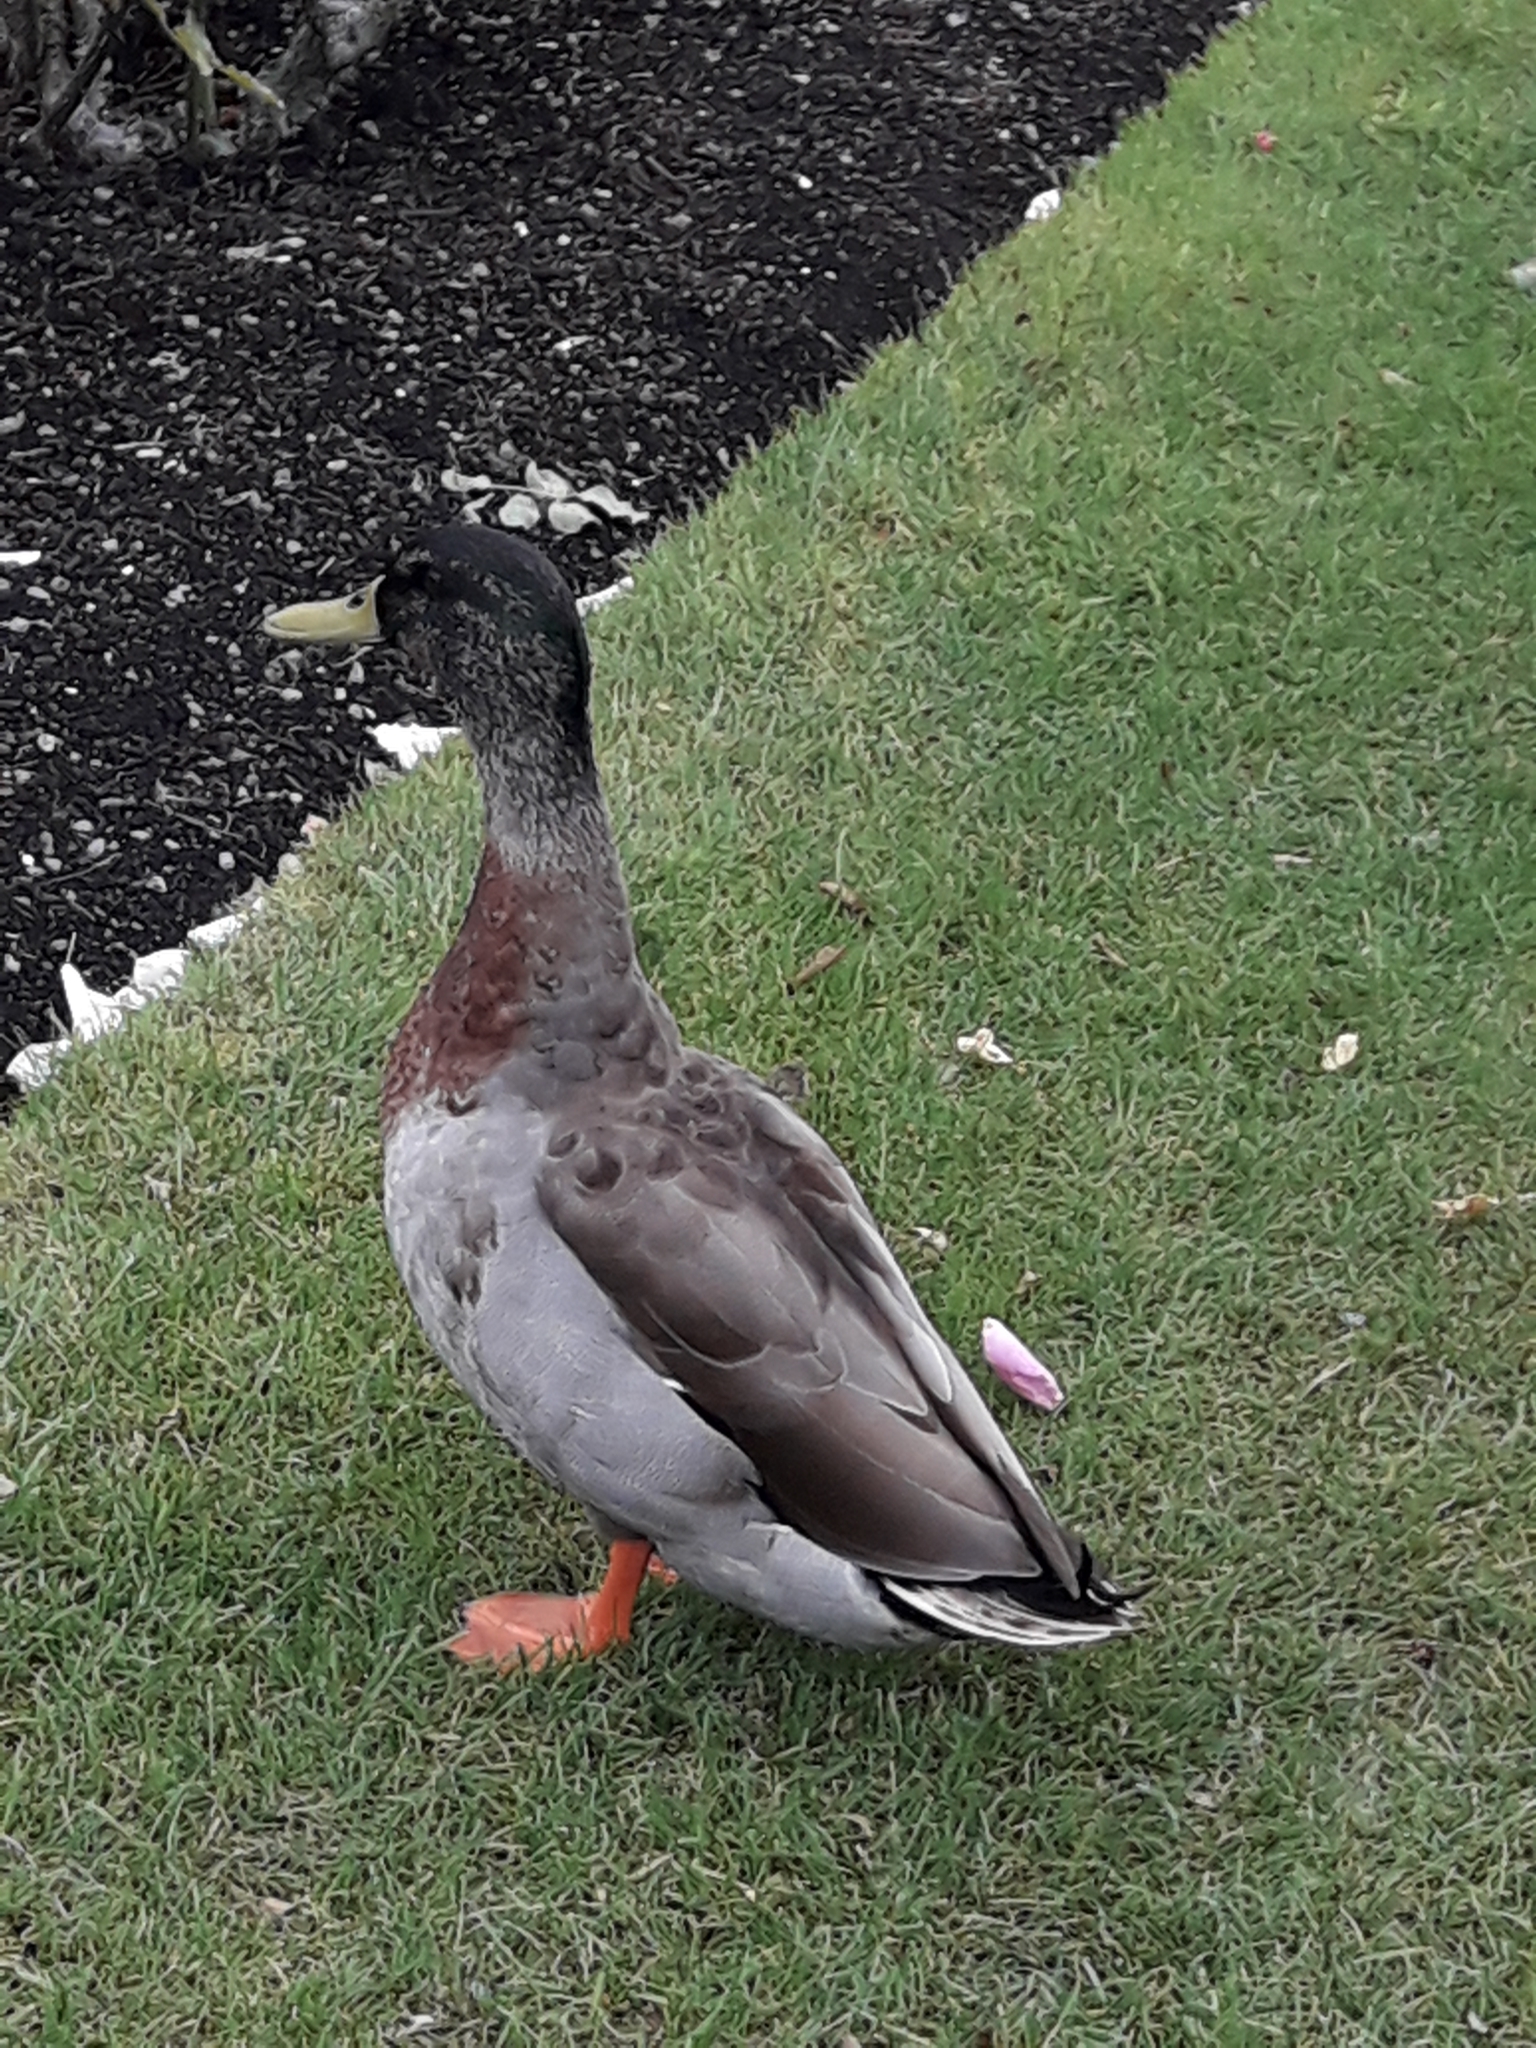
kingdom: Animalia
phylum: Chordata
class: Aves
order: Anseriformes
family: Anatidae
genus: Anas
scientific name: Anas platyrhynchos
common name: Mallard
